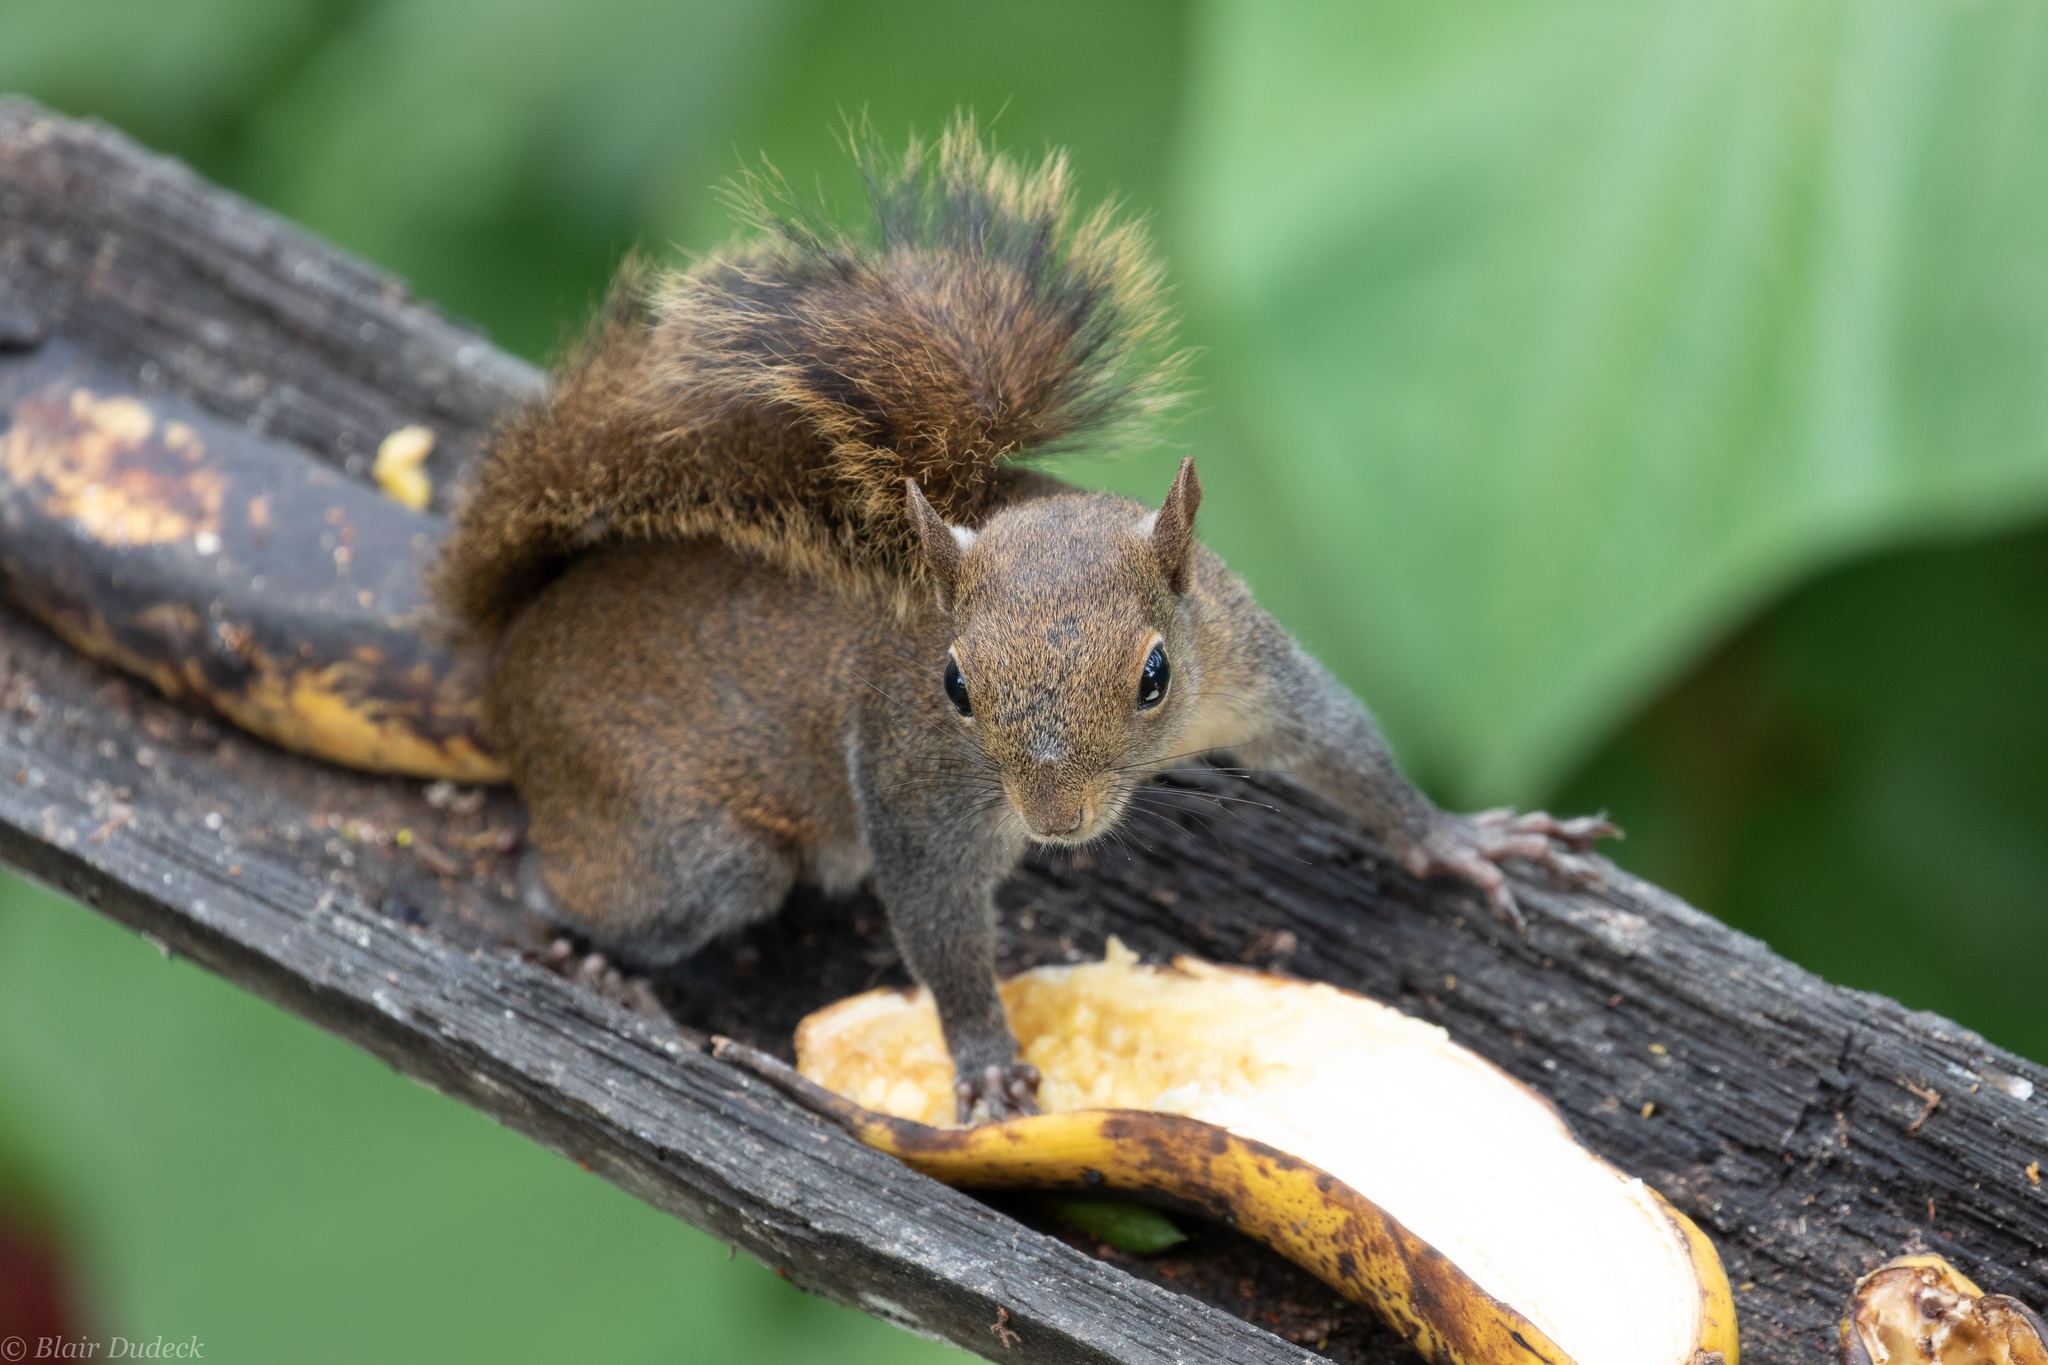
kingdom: Animalia
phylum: Chordata
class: Mammalia
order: Rodentia
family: Sciuridae
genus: Sciurus
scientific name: Sciurus granatensis
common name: Red-tailed squirrel
